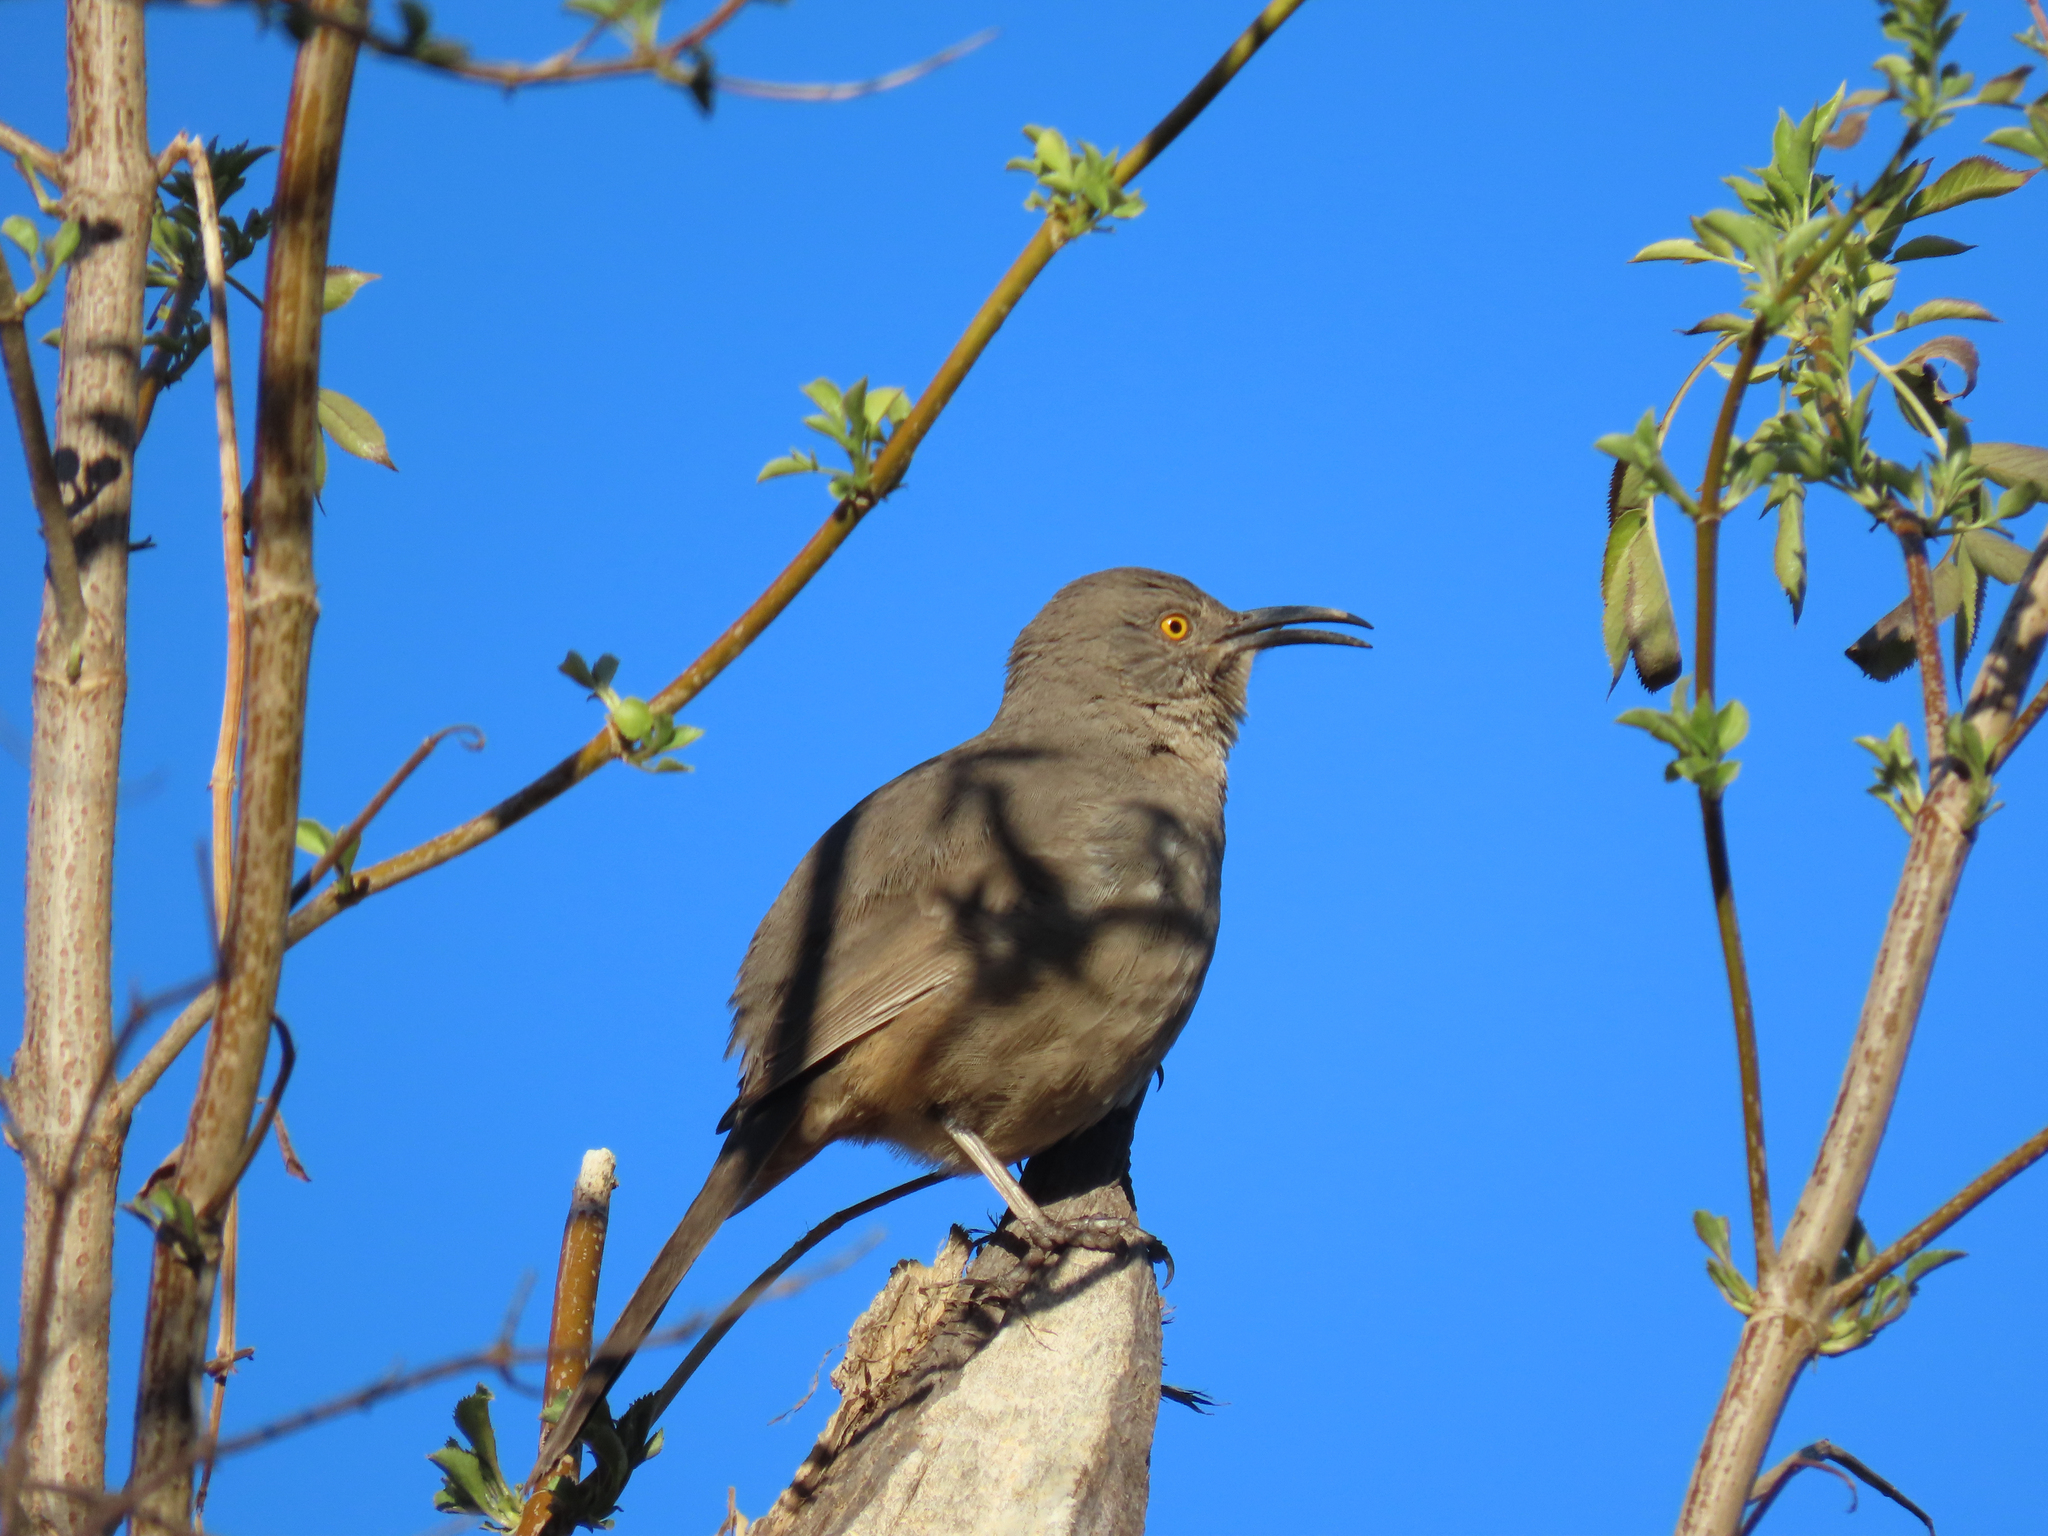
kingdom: Animalia
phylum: Chordata
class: Aves
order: Passeriformes
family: Mimidae
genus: Toxostoma
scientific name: Toxostoma curvirostre
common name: Curve-billed thrasher
